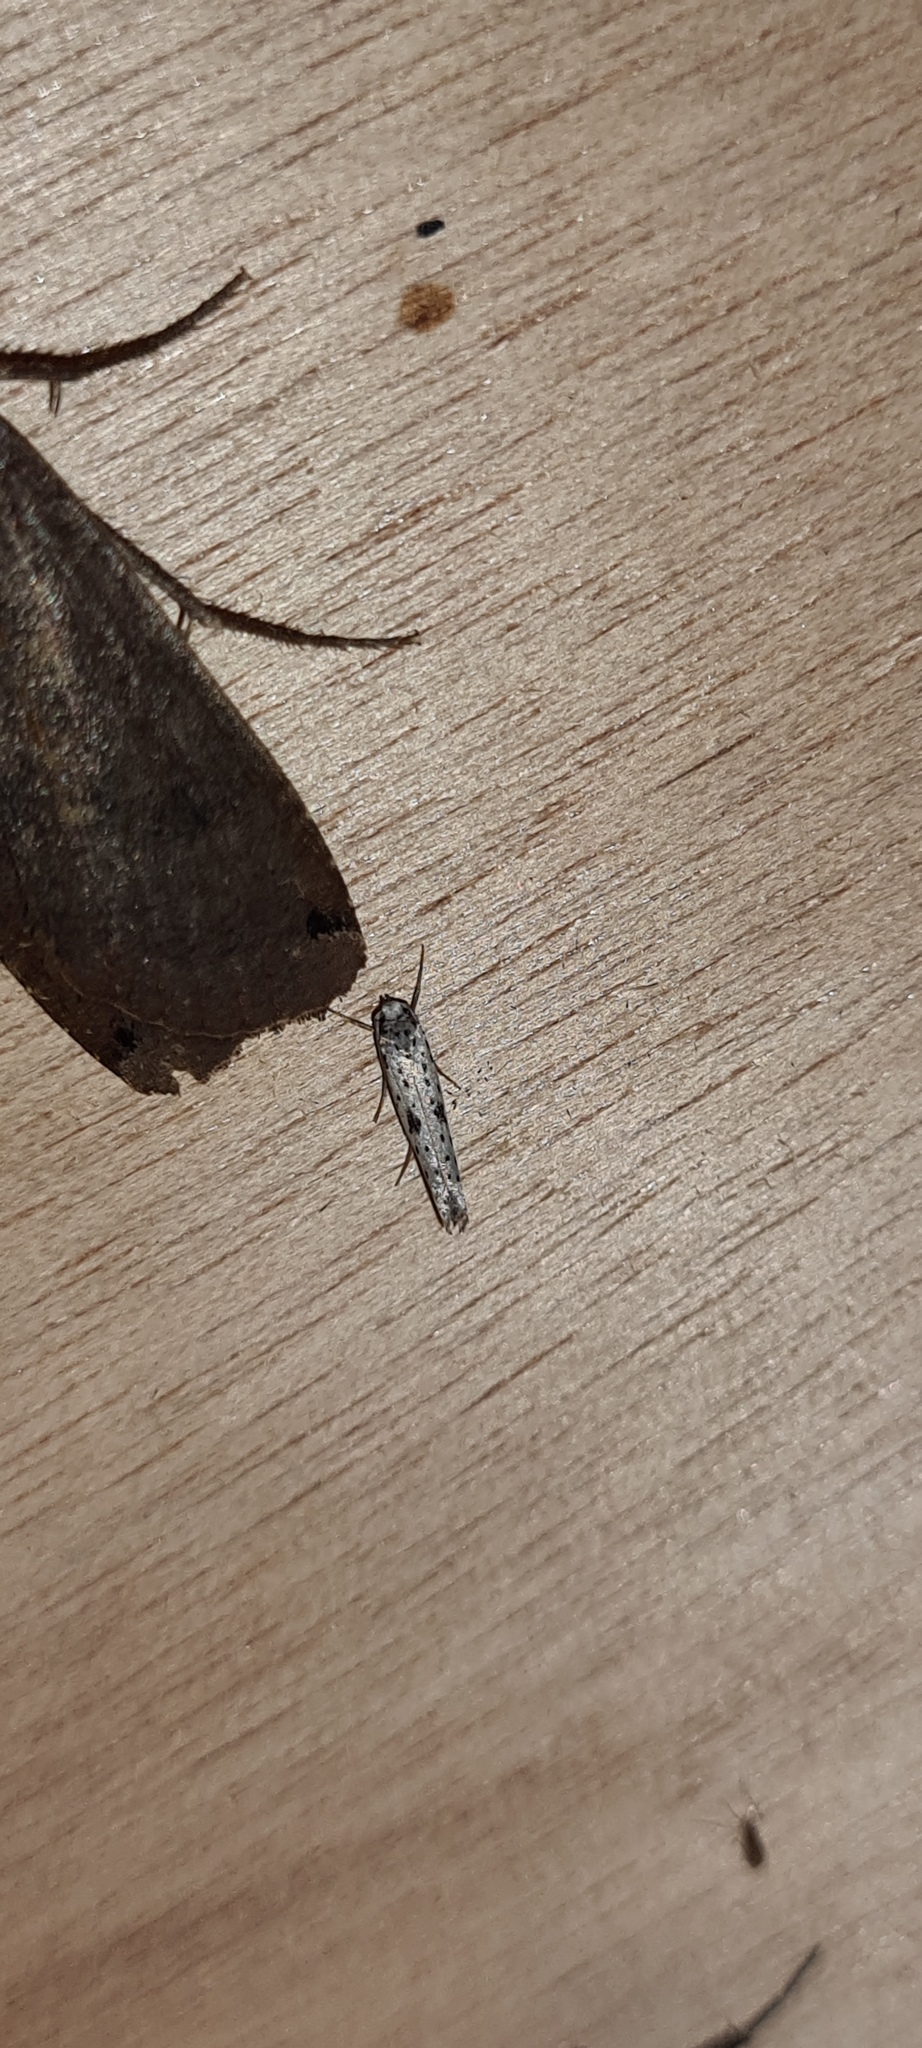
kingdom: Animalia
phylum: Arthropoda
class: Insecta
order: Lepidoptera
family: Yponomeutidae
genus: Yponomeuta
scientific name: Yponomeuta plumbella
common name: Black-tipped ermine
